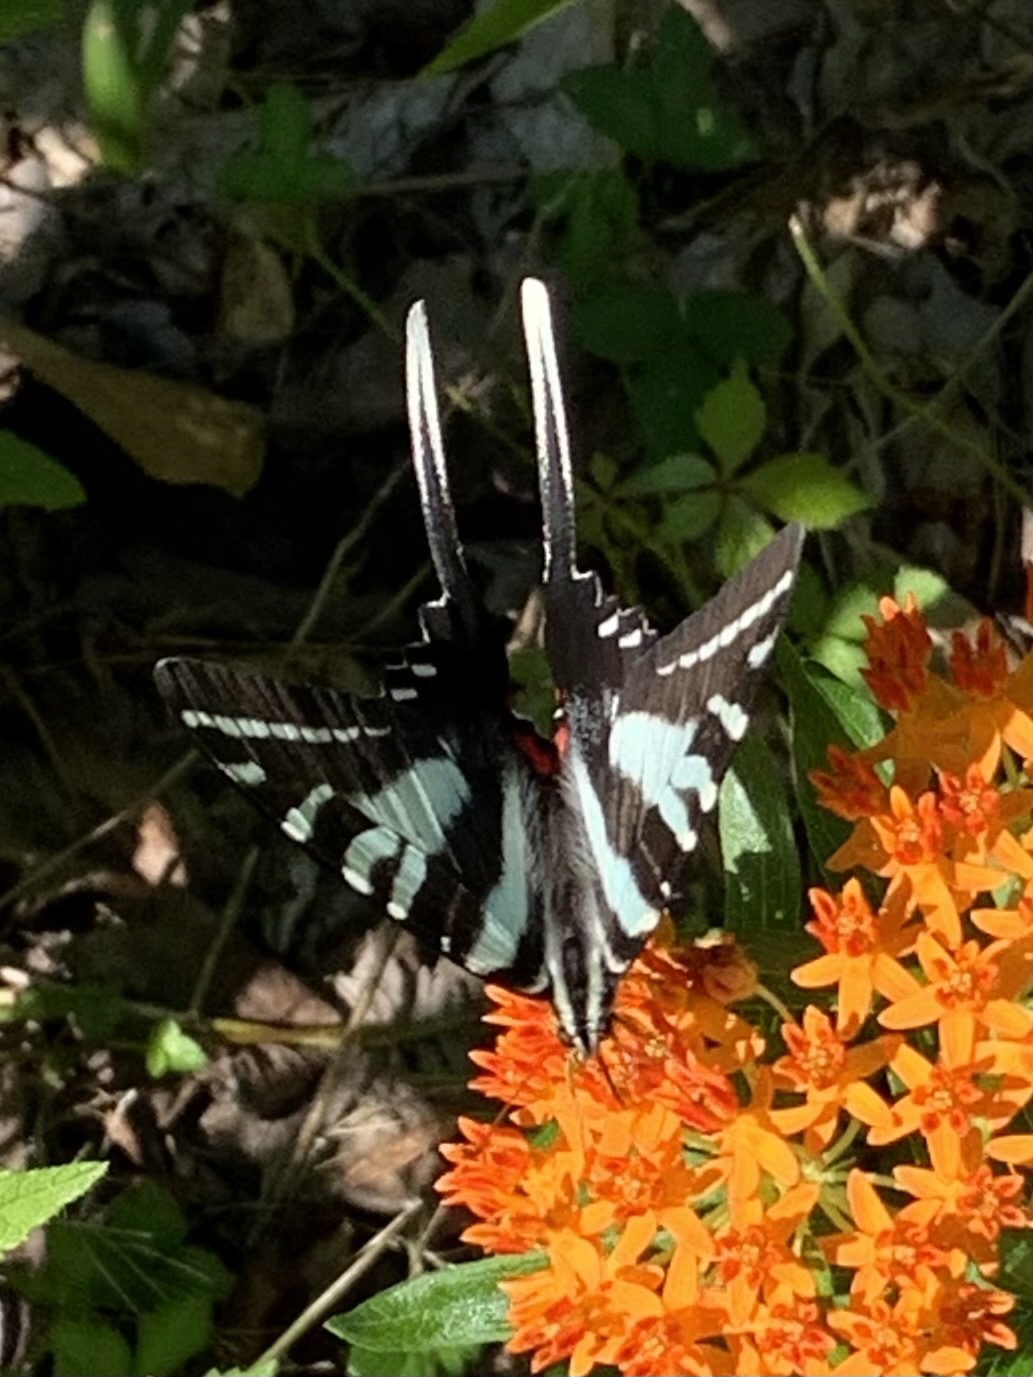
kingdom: Animalia
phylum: Arthropoda
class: Insecta
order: Lepidoptera
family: Papilionidae
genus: Protographium
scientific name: Protographium marcellus
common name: Zebra swallowtail
